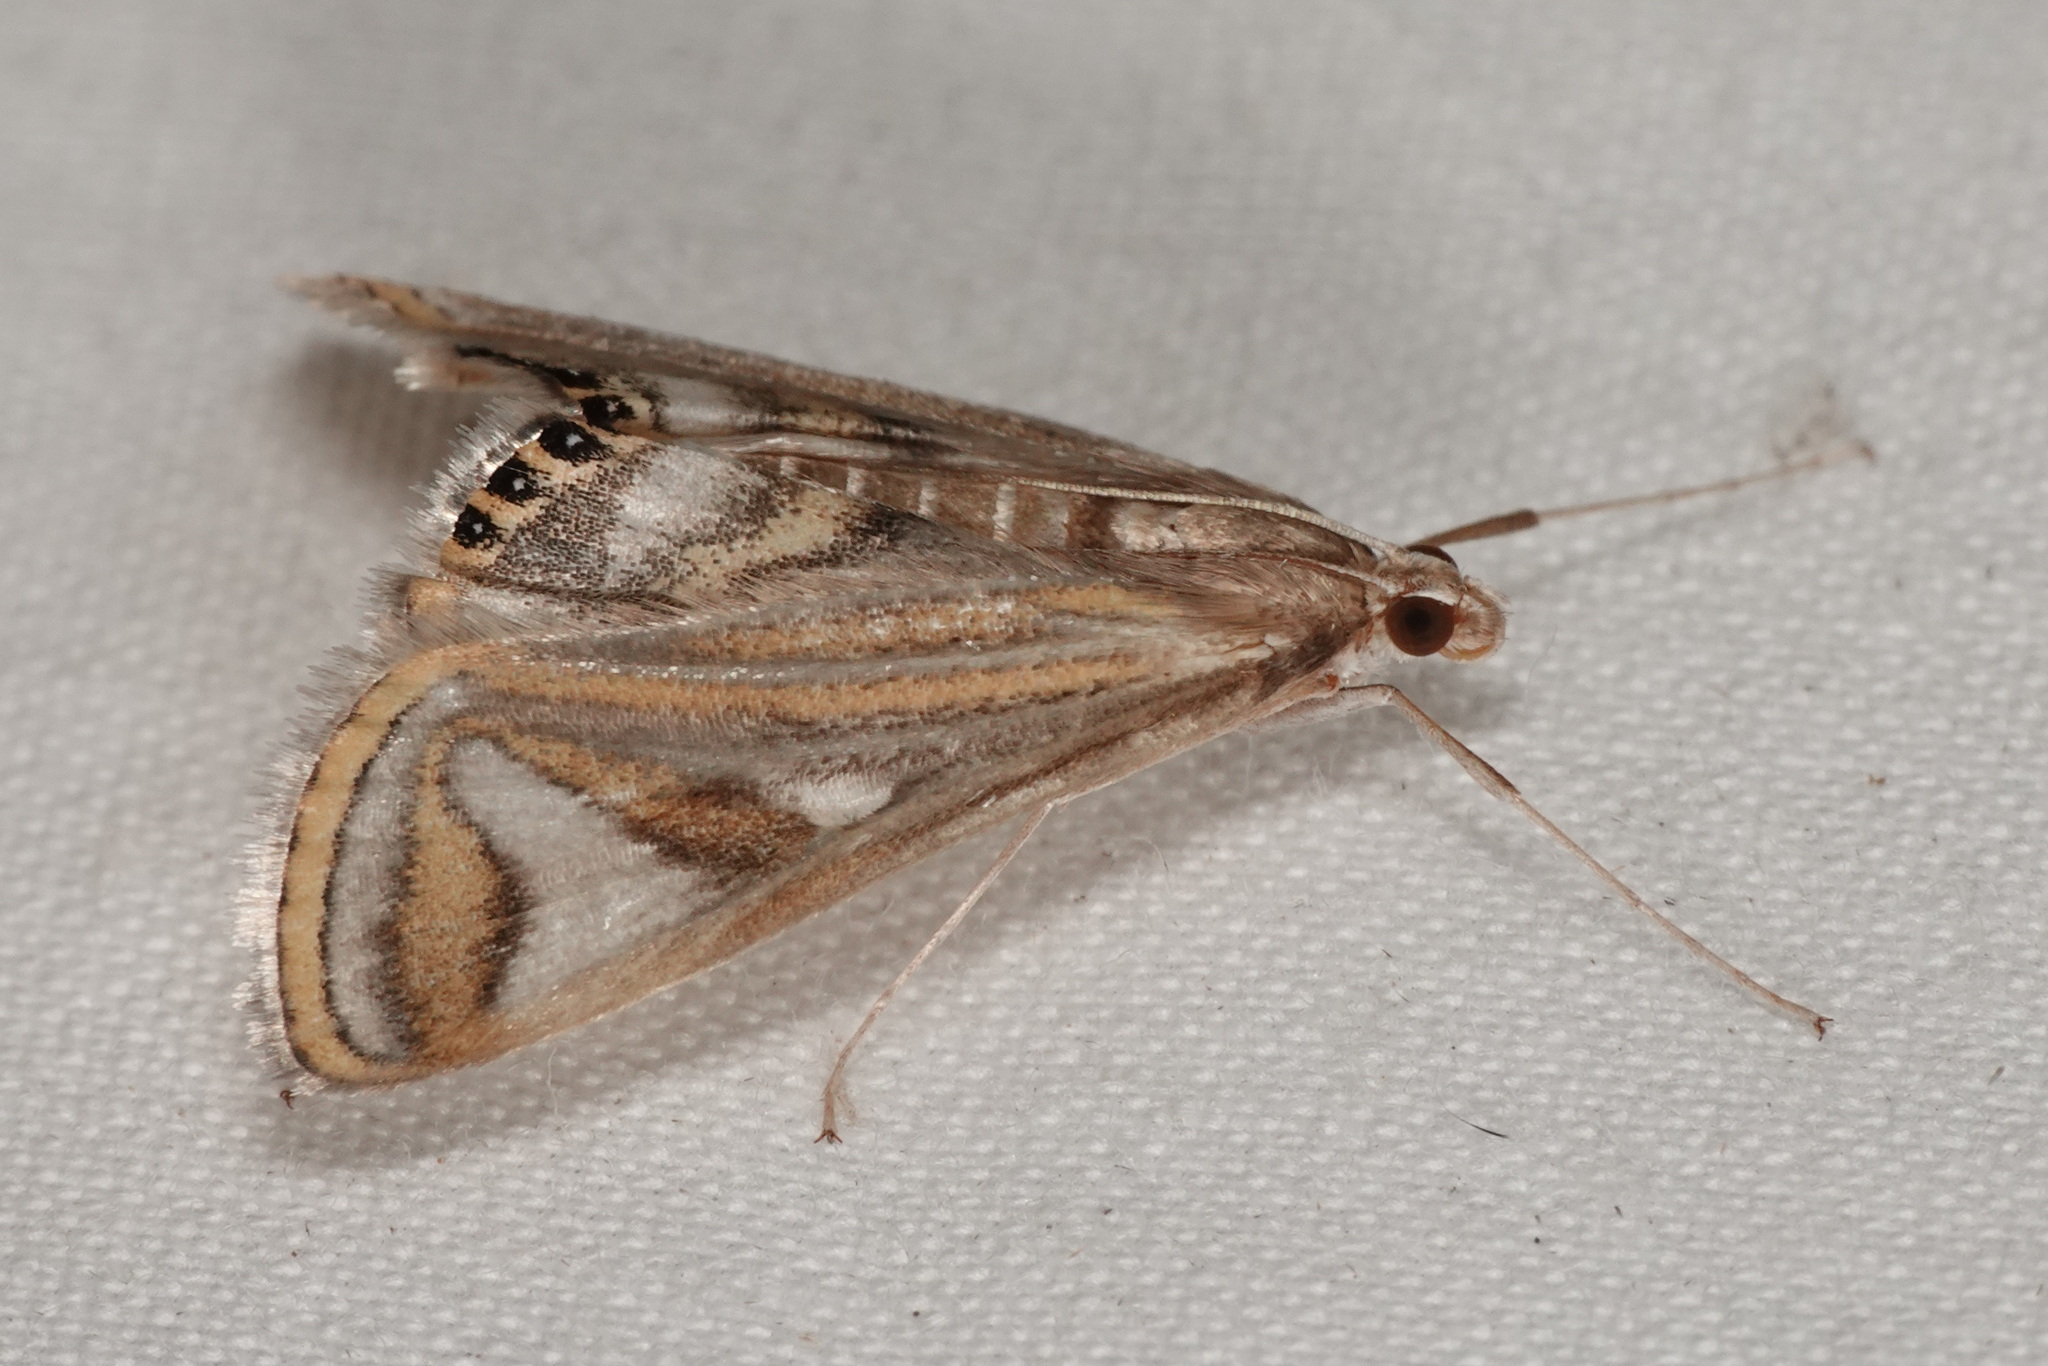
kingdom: Animalia
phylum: Arthropoda
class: Insecta
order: Lepidoptera
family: Crambidae
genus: Strepsinoma
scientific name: Strepsinoma foveata
